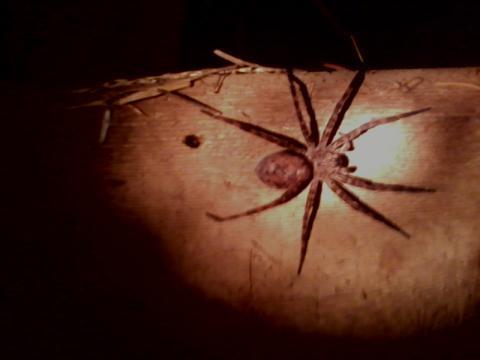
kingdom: Animalia
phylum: Arthropoda
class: Arachnida
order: Araneae
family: Pisauridae
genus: Dolomedes
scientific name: Dolomedes tenebrosus
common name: Dark fishing spider
